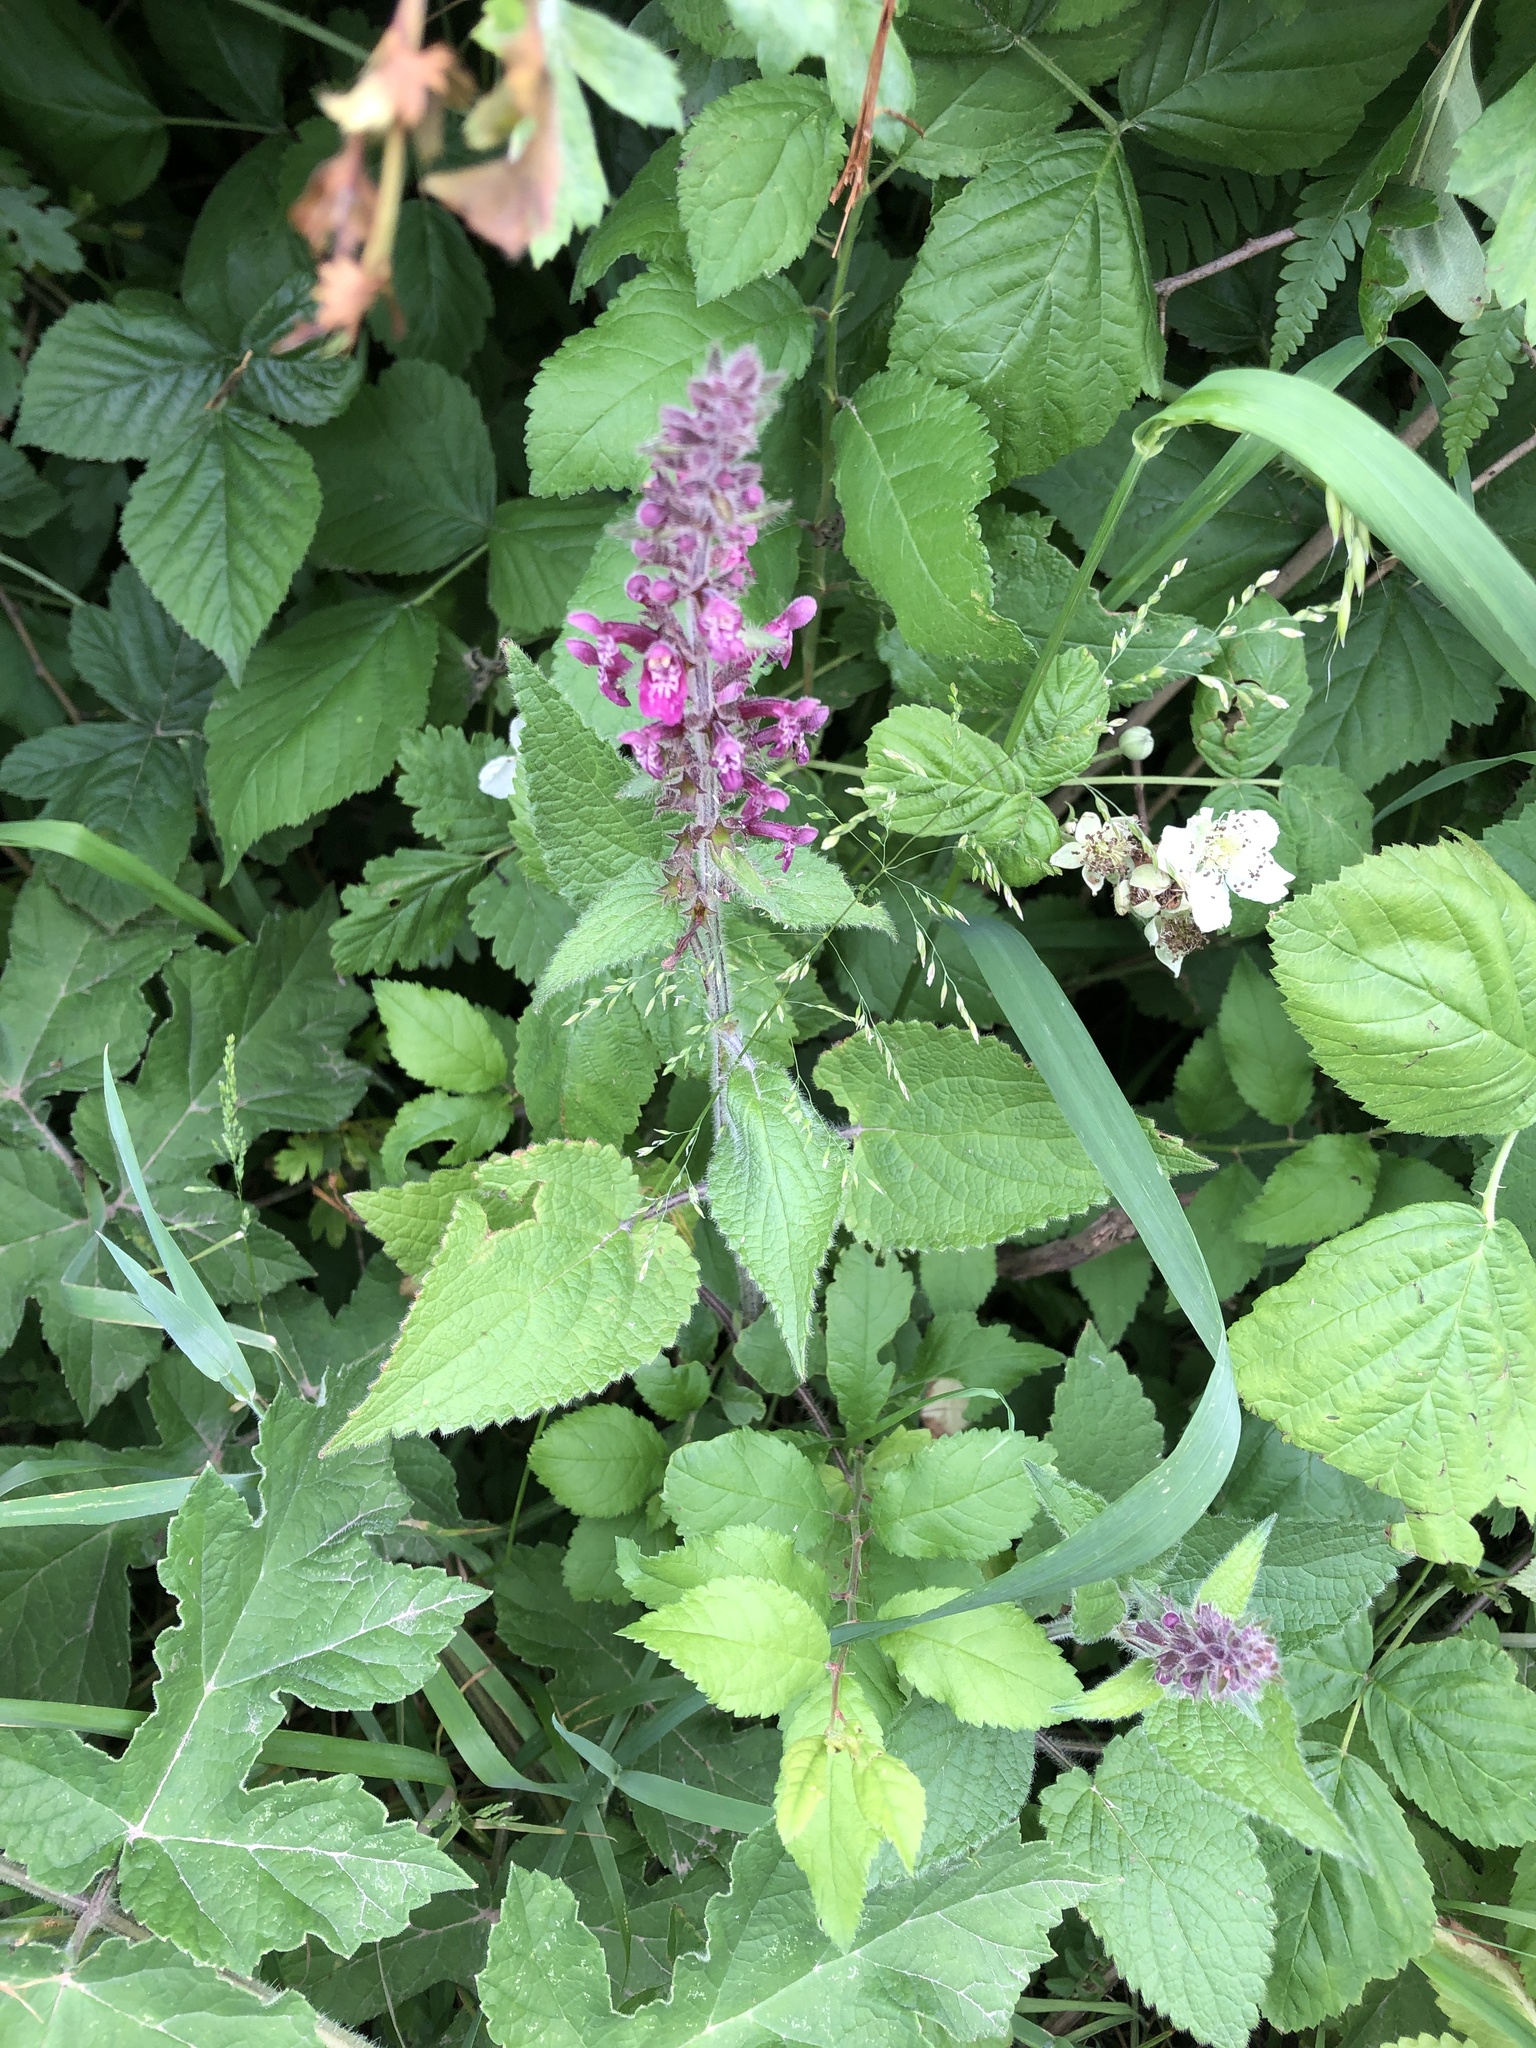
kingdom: Plantae
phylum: Tracheophyta
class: Magnoliopsida
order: Lamiales
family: Lamiaceae
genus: Stachys
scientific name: Stachys sylvatica
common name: Hedge woundwort
